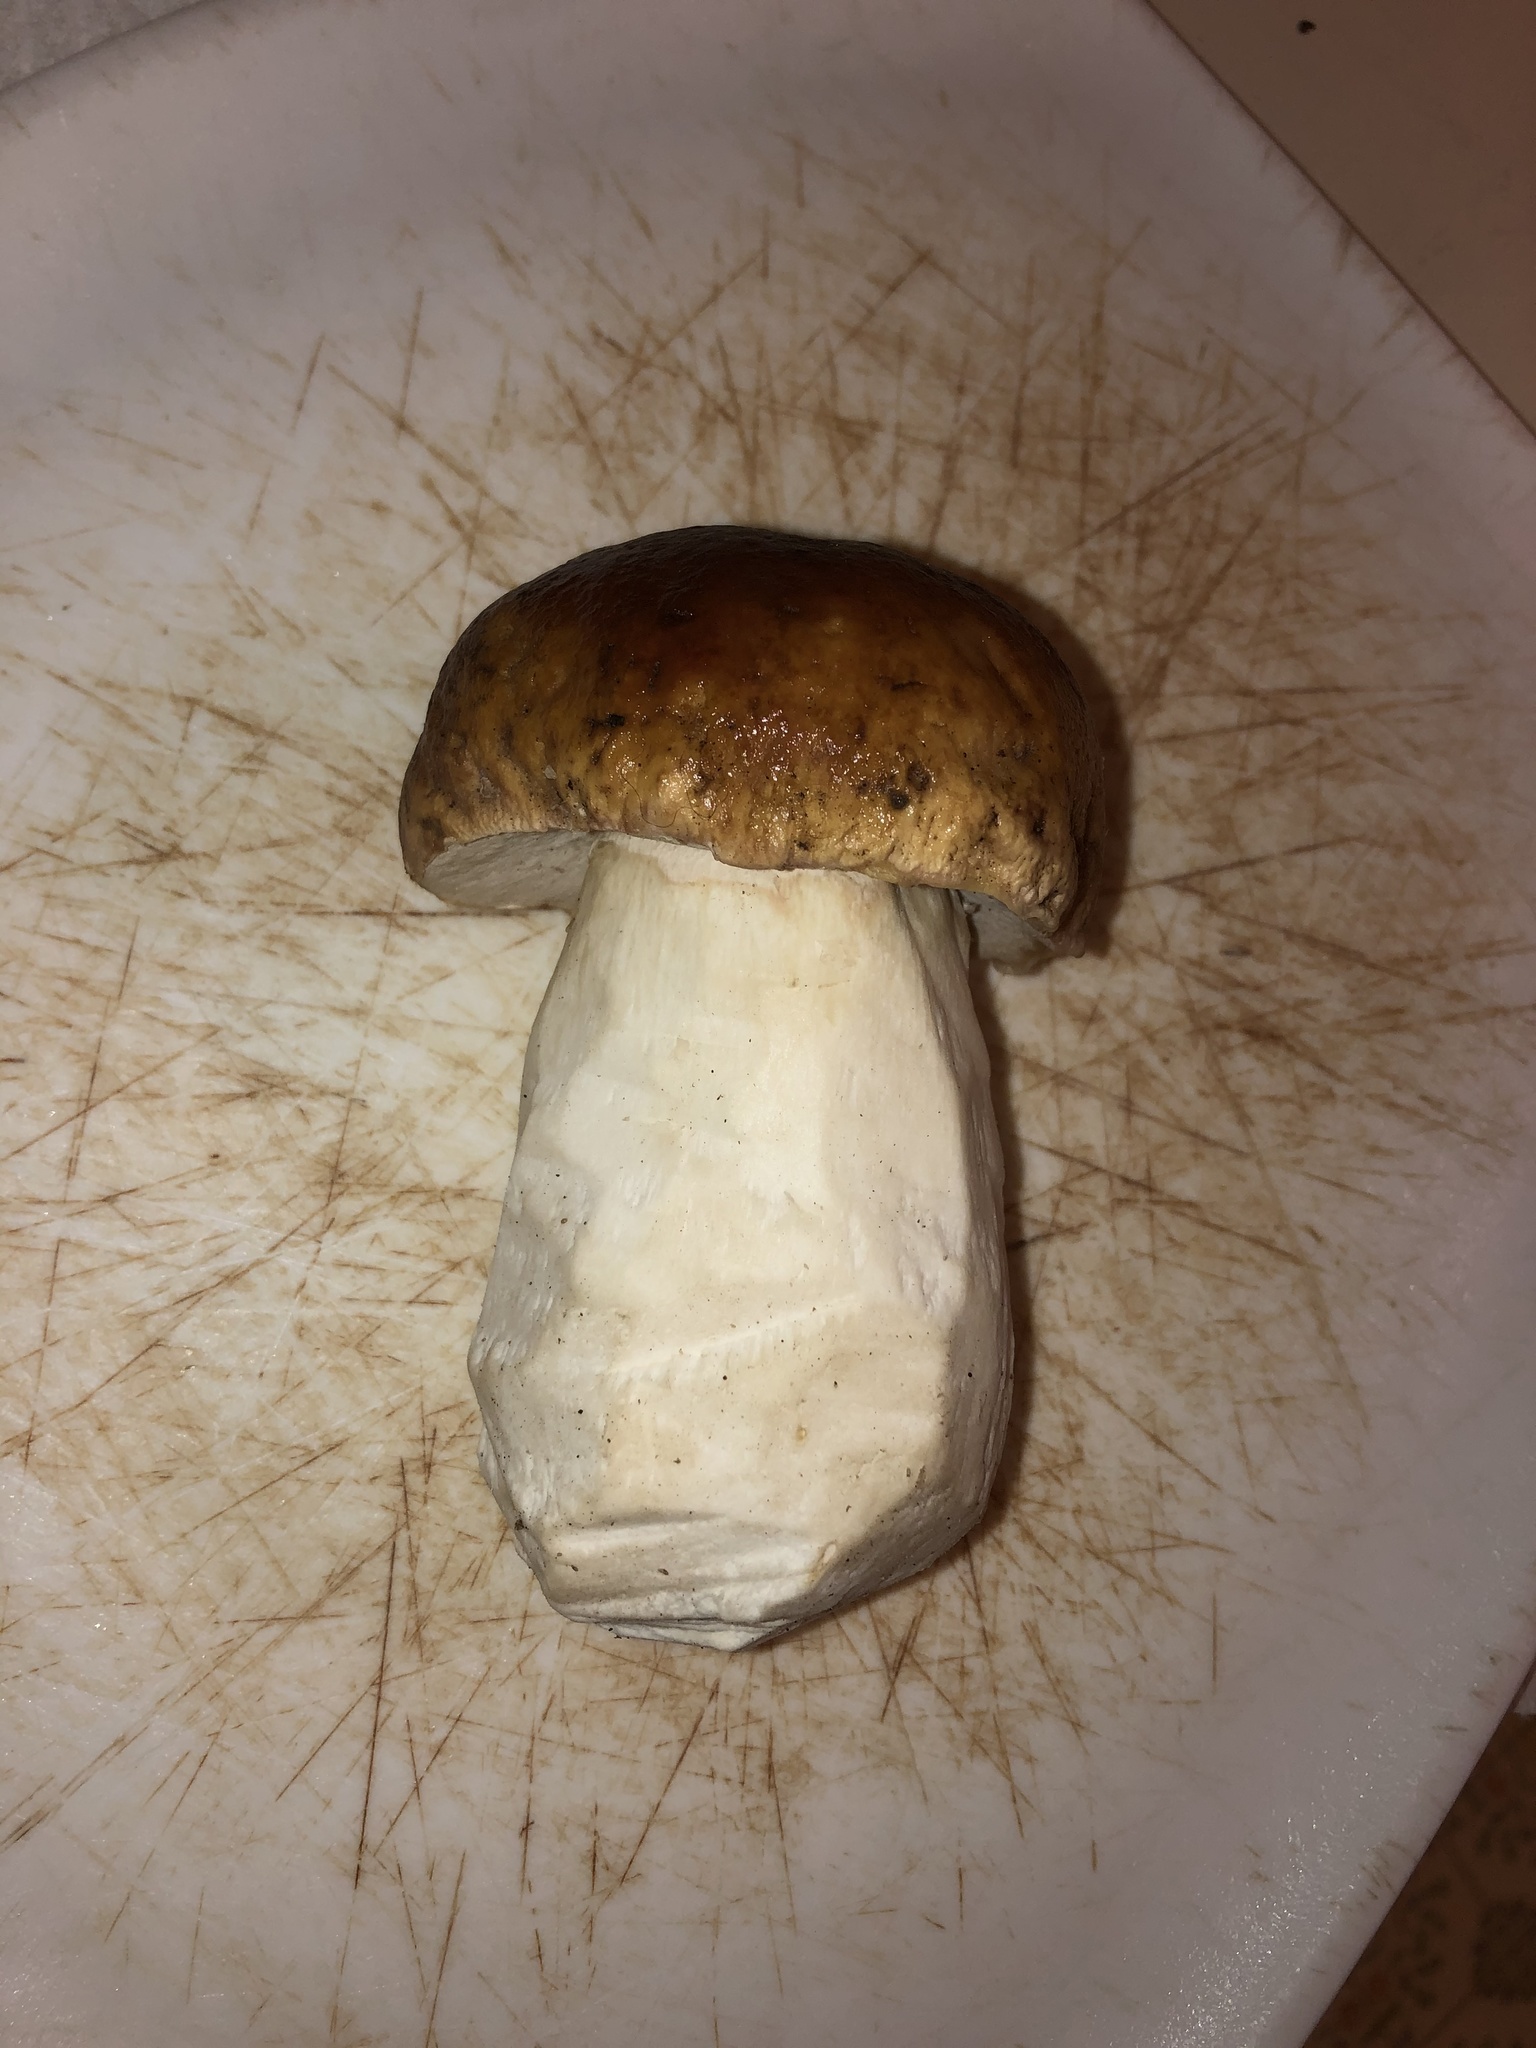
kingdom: Fungi
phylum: Basidiomycota
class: Agaricomycetes
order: Boletales
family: Boletaceae
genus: Boletus
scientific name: Boletus edulis
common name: Cep
